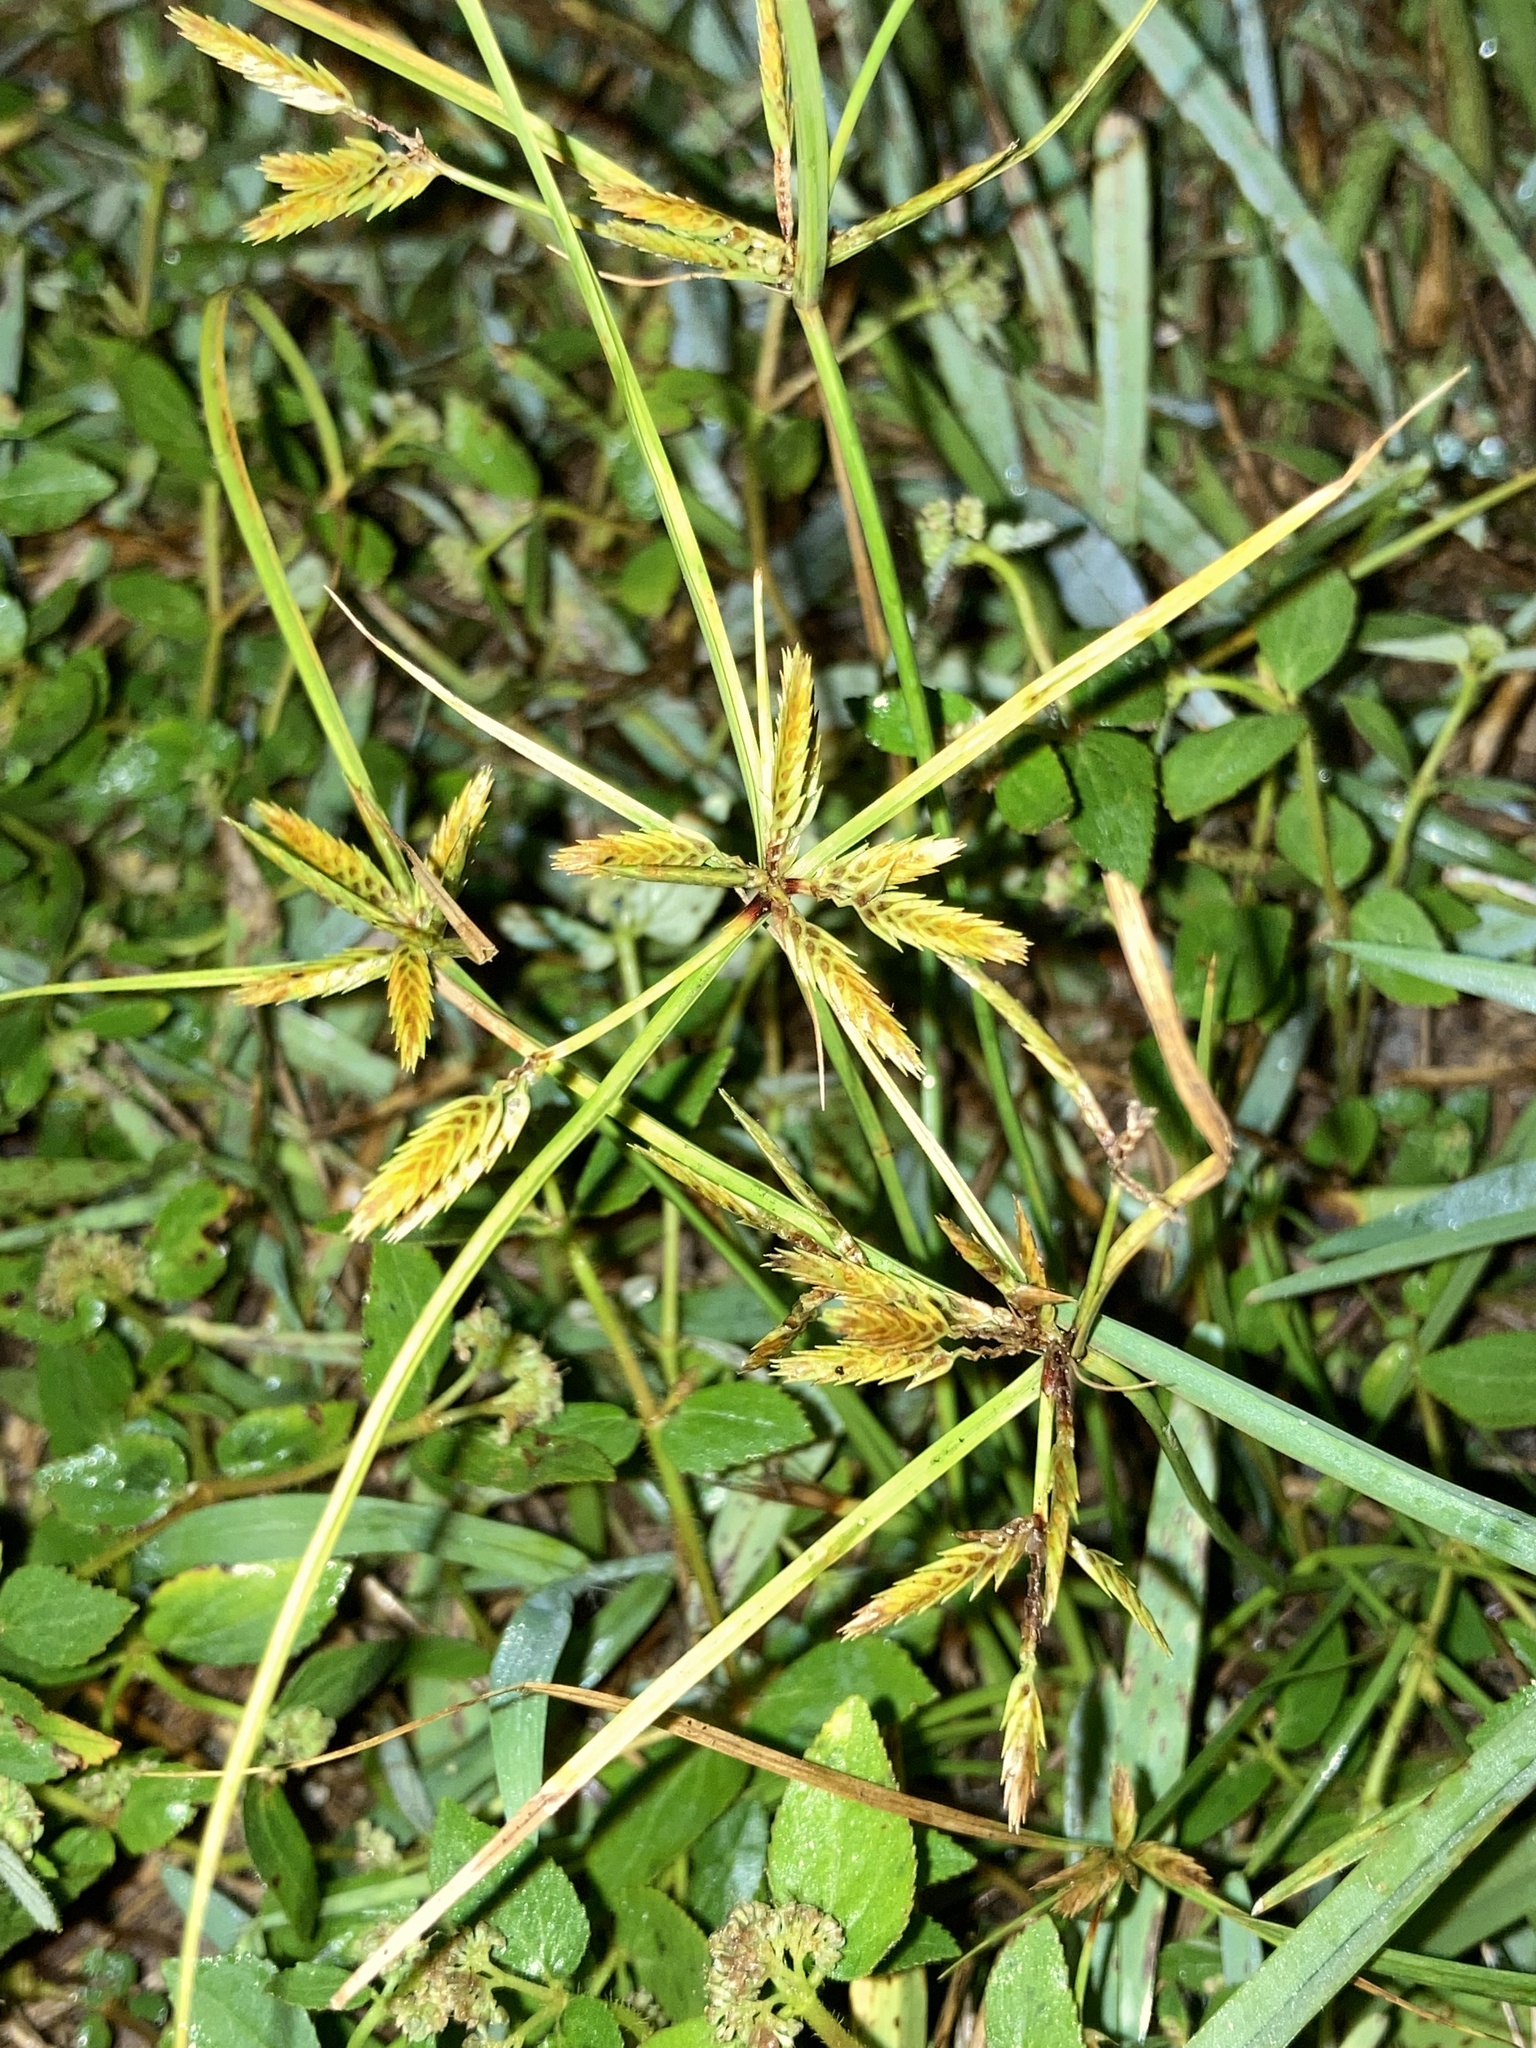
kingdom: Plantae
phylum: Tracheophyta
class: Liliopsida
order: Poales
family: Cyperaceae
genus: Cyperus
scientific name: Cyperus compressus
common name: Poorland flatsedge
